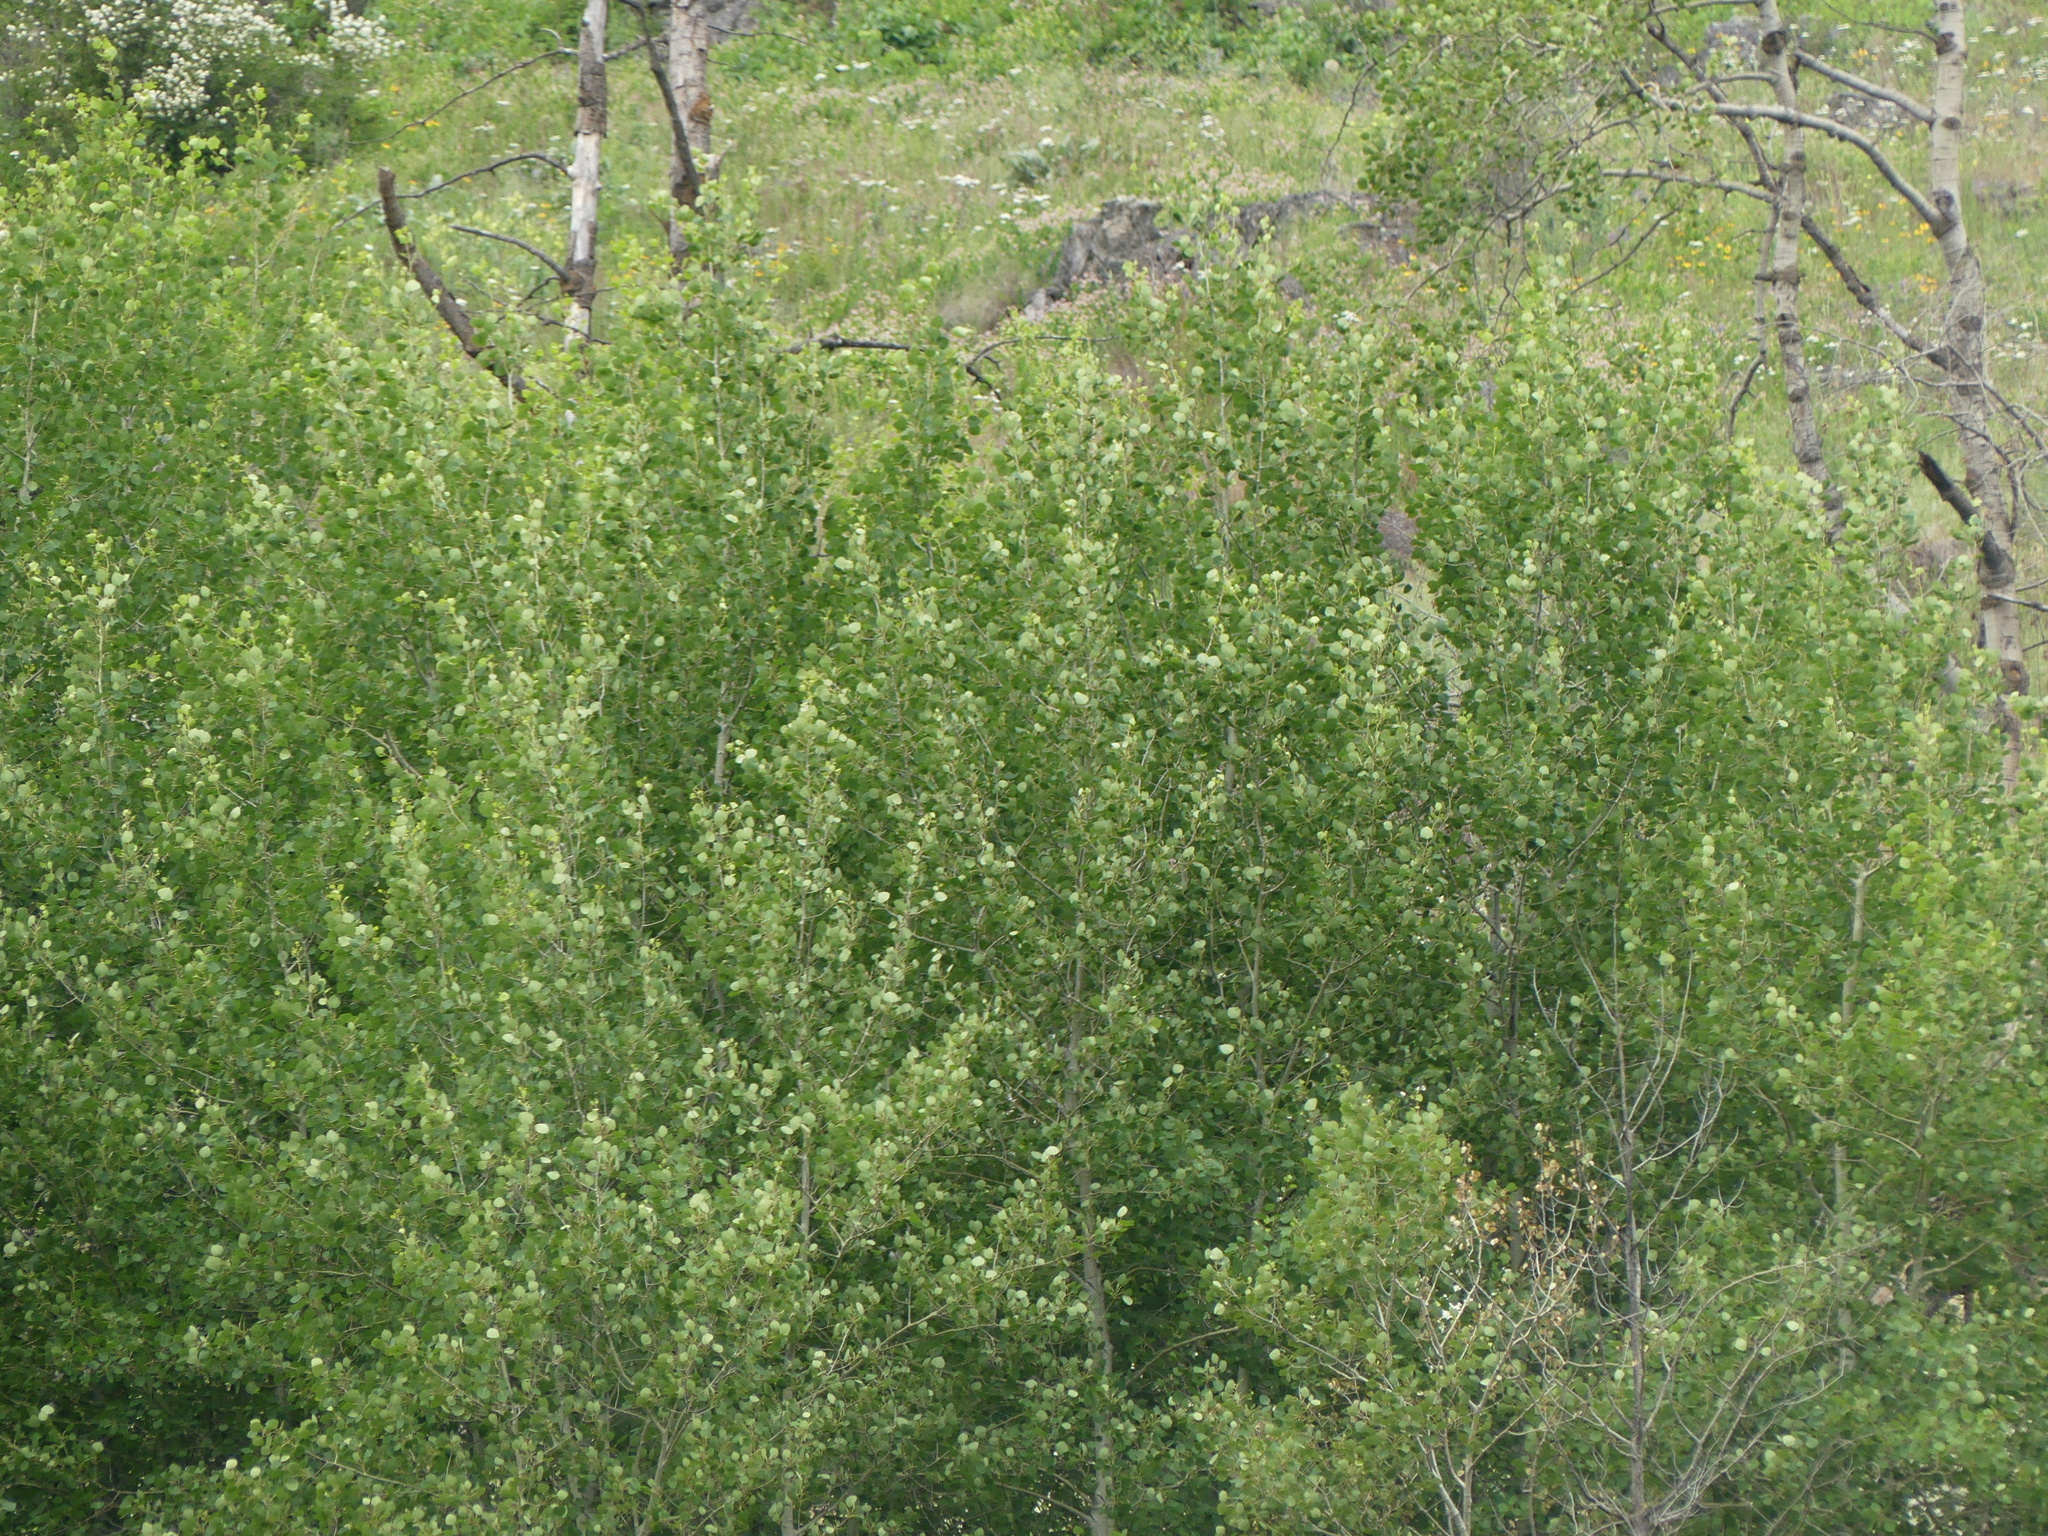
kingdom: Plantae
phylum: Tracheophyta
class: Magnoliopsida
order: Malpighiales
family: Salicaceae
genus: Populus
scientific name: Populus tremuloides
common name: Quaking aspen
